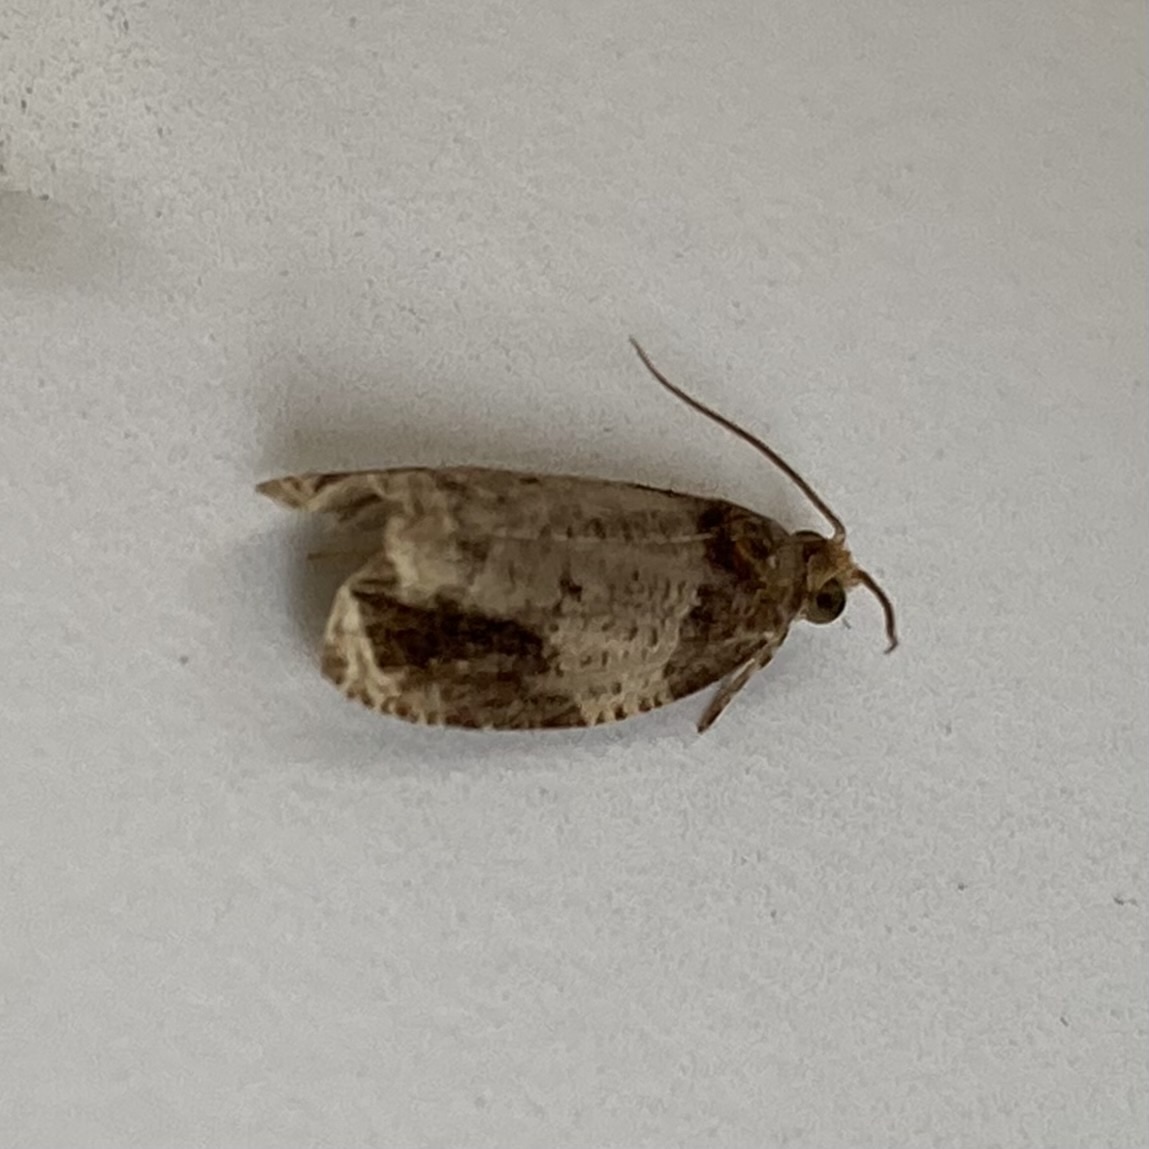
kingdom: Animalia
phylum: Arthropoda
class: Insecta
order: Lepidoptera
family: Tortricidae
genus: Olethreutes
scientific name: Olethreutes ferriferana
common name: Hydrangea leaftier moth
